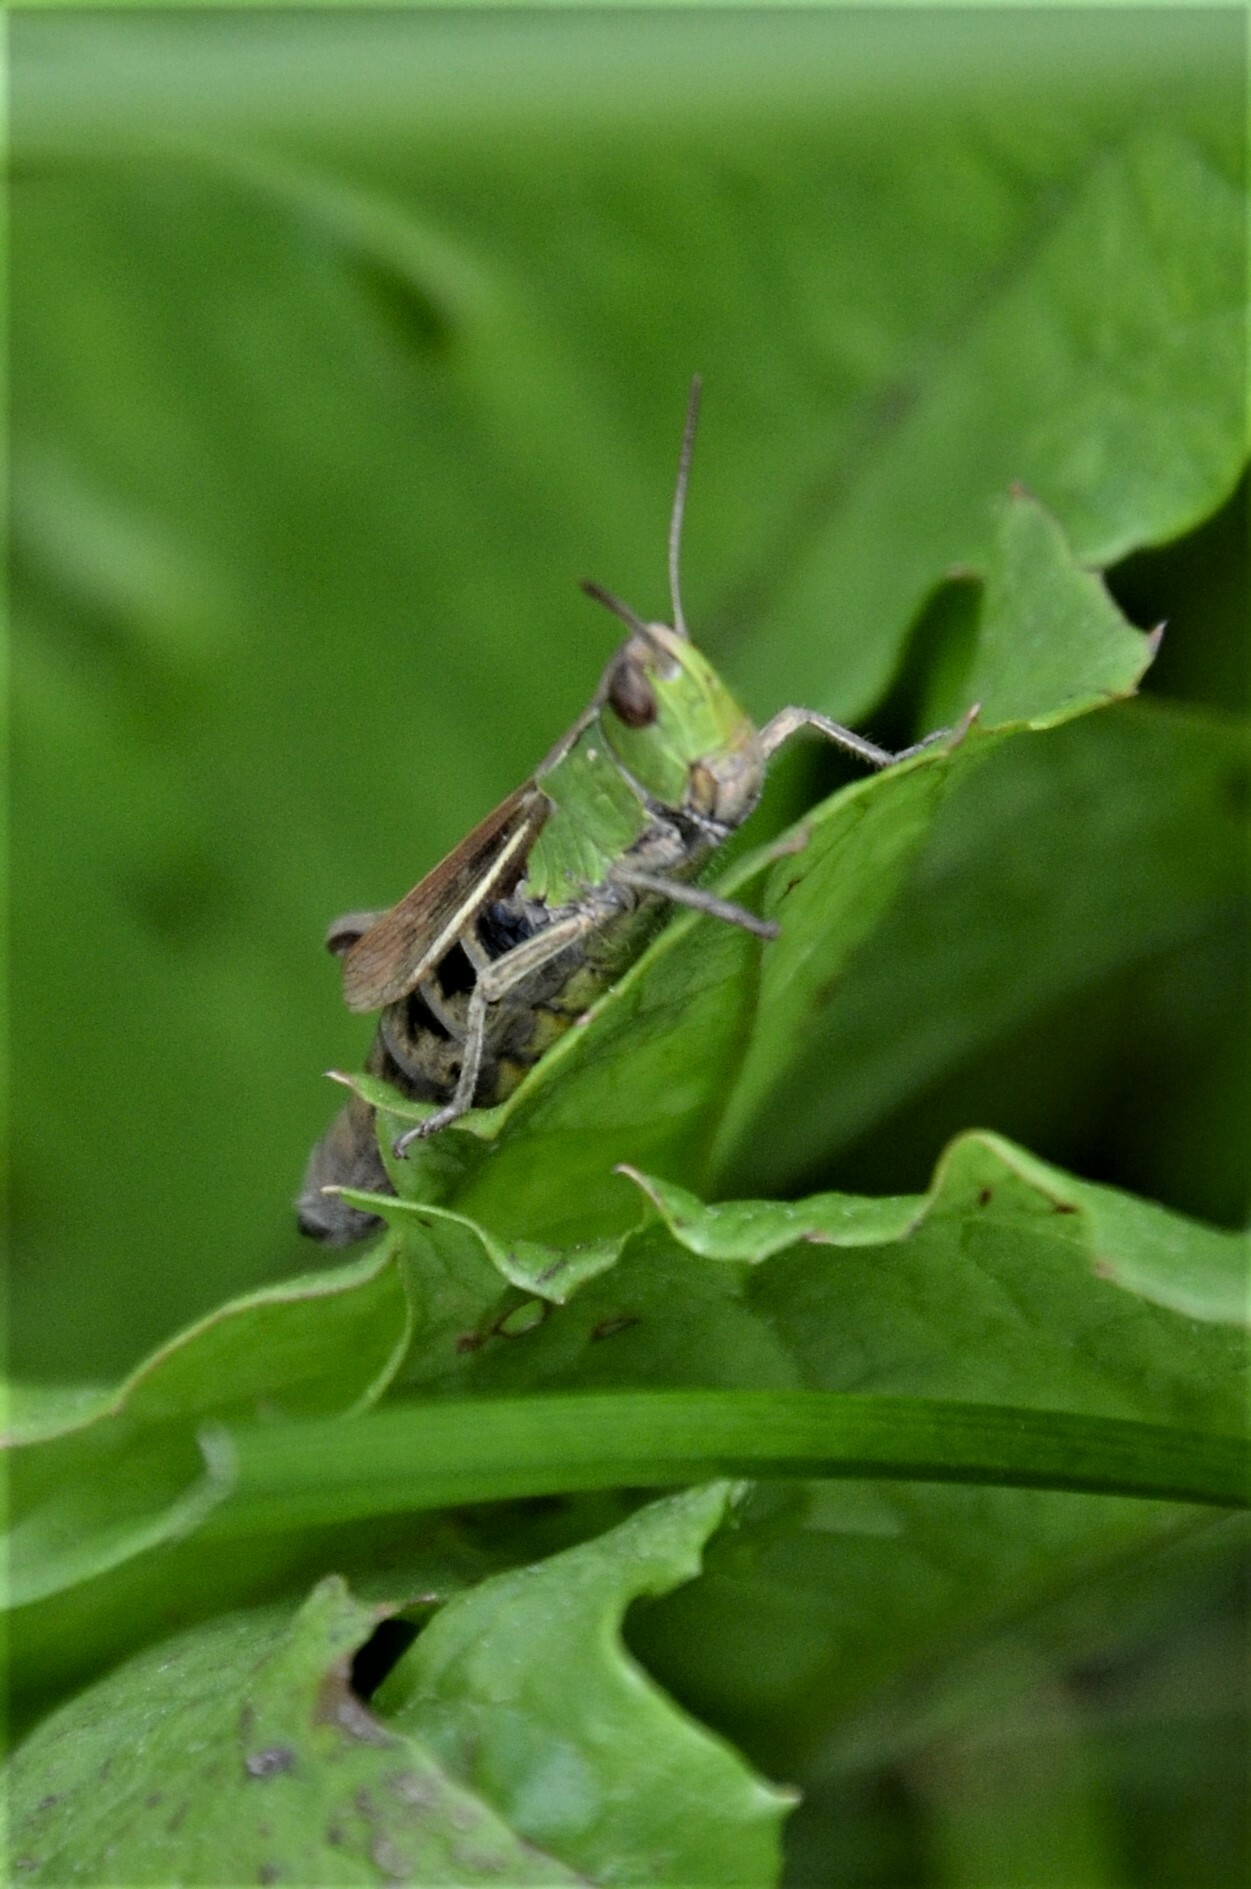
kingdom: Animalia
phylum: Arthropoda
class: Insecta
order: Orthoptera
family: Acrididae
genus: Chorthippus
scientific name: Chorthippus albomarginatus
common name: Lesser marsh grasshopper
